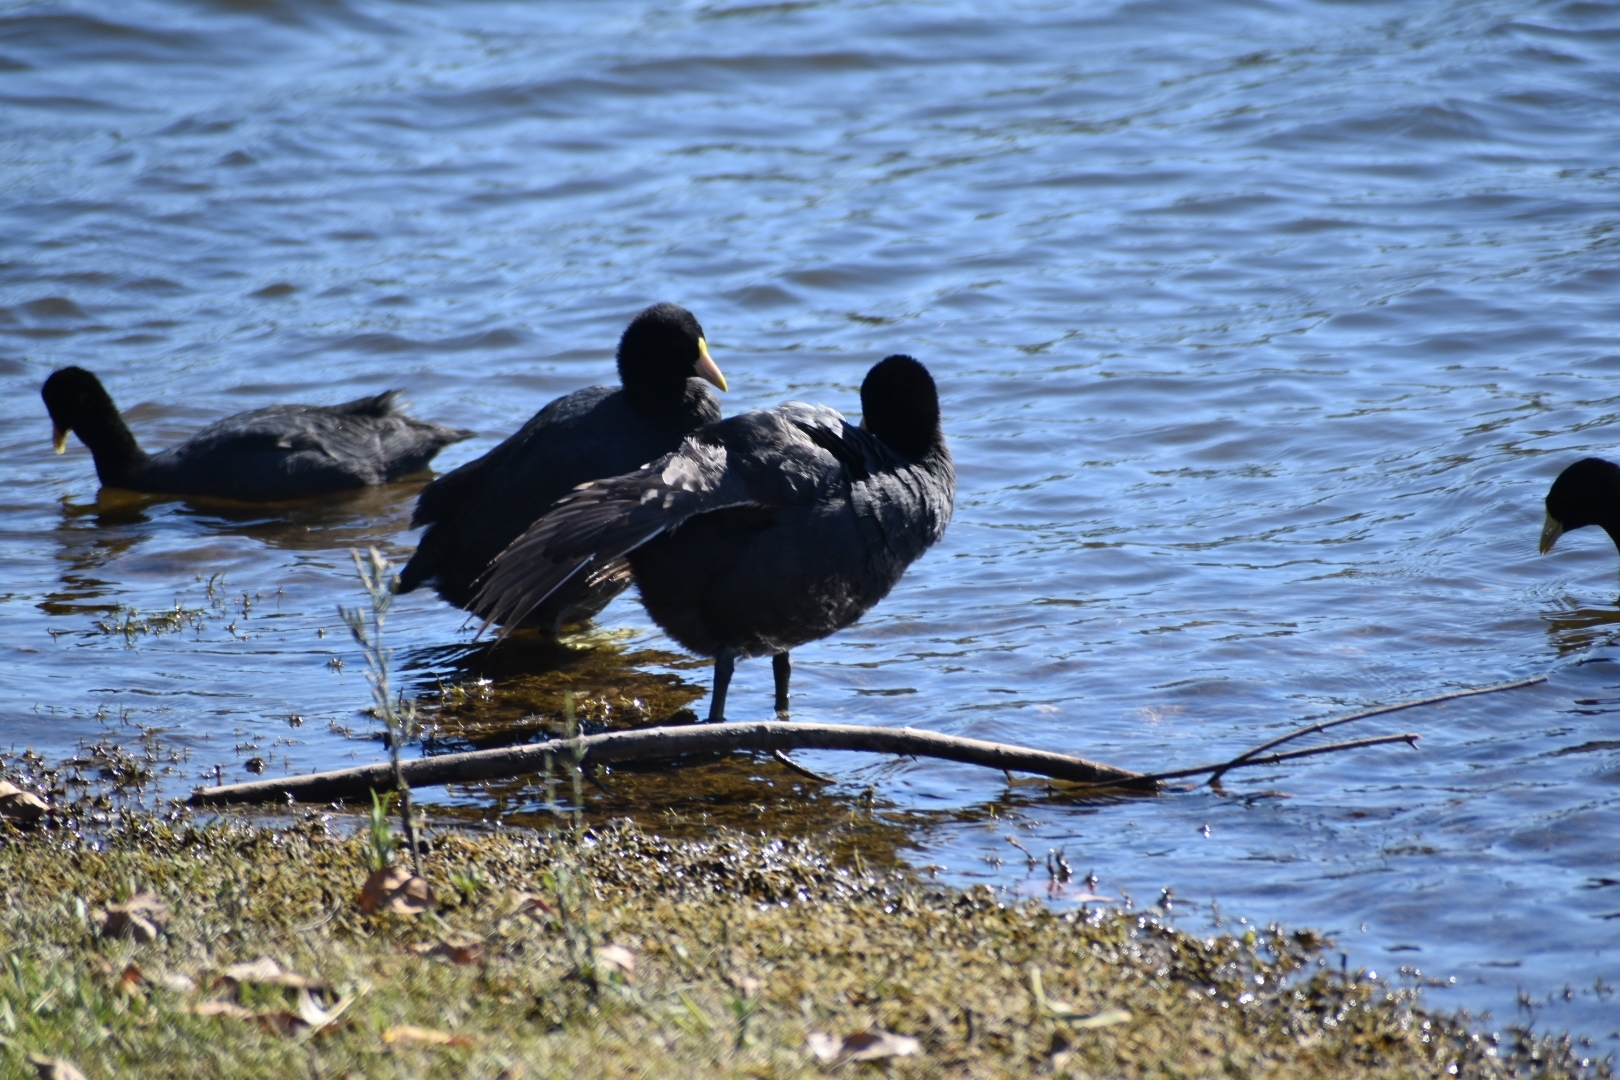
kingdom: Animalia
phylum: Chordata
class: Aves
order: Gruiformes
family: Rallidae
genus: Fulica
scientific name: Fulica leucoptera
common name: White-winged coot
